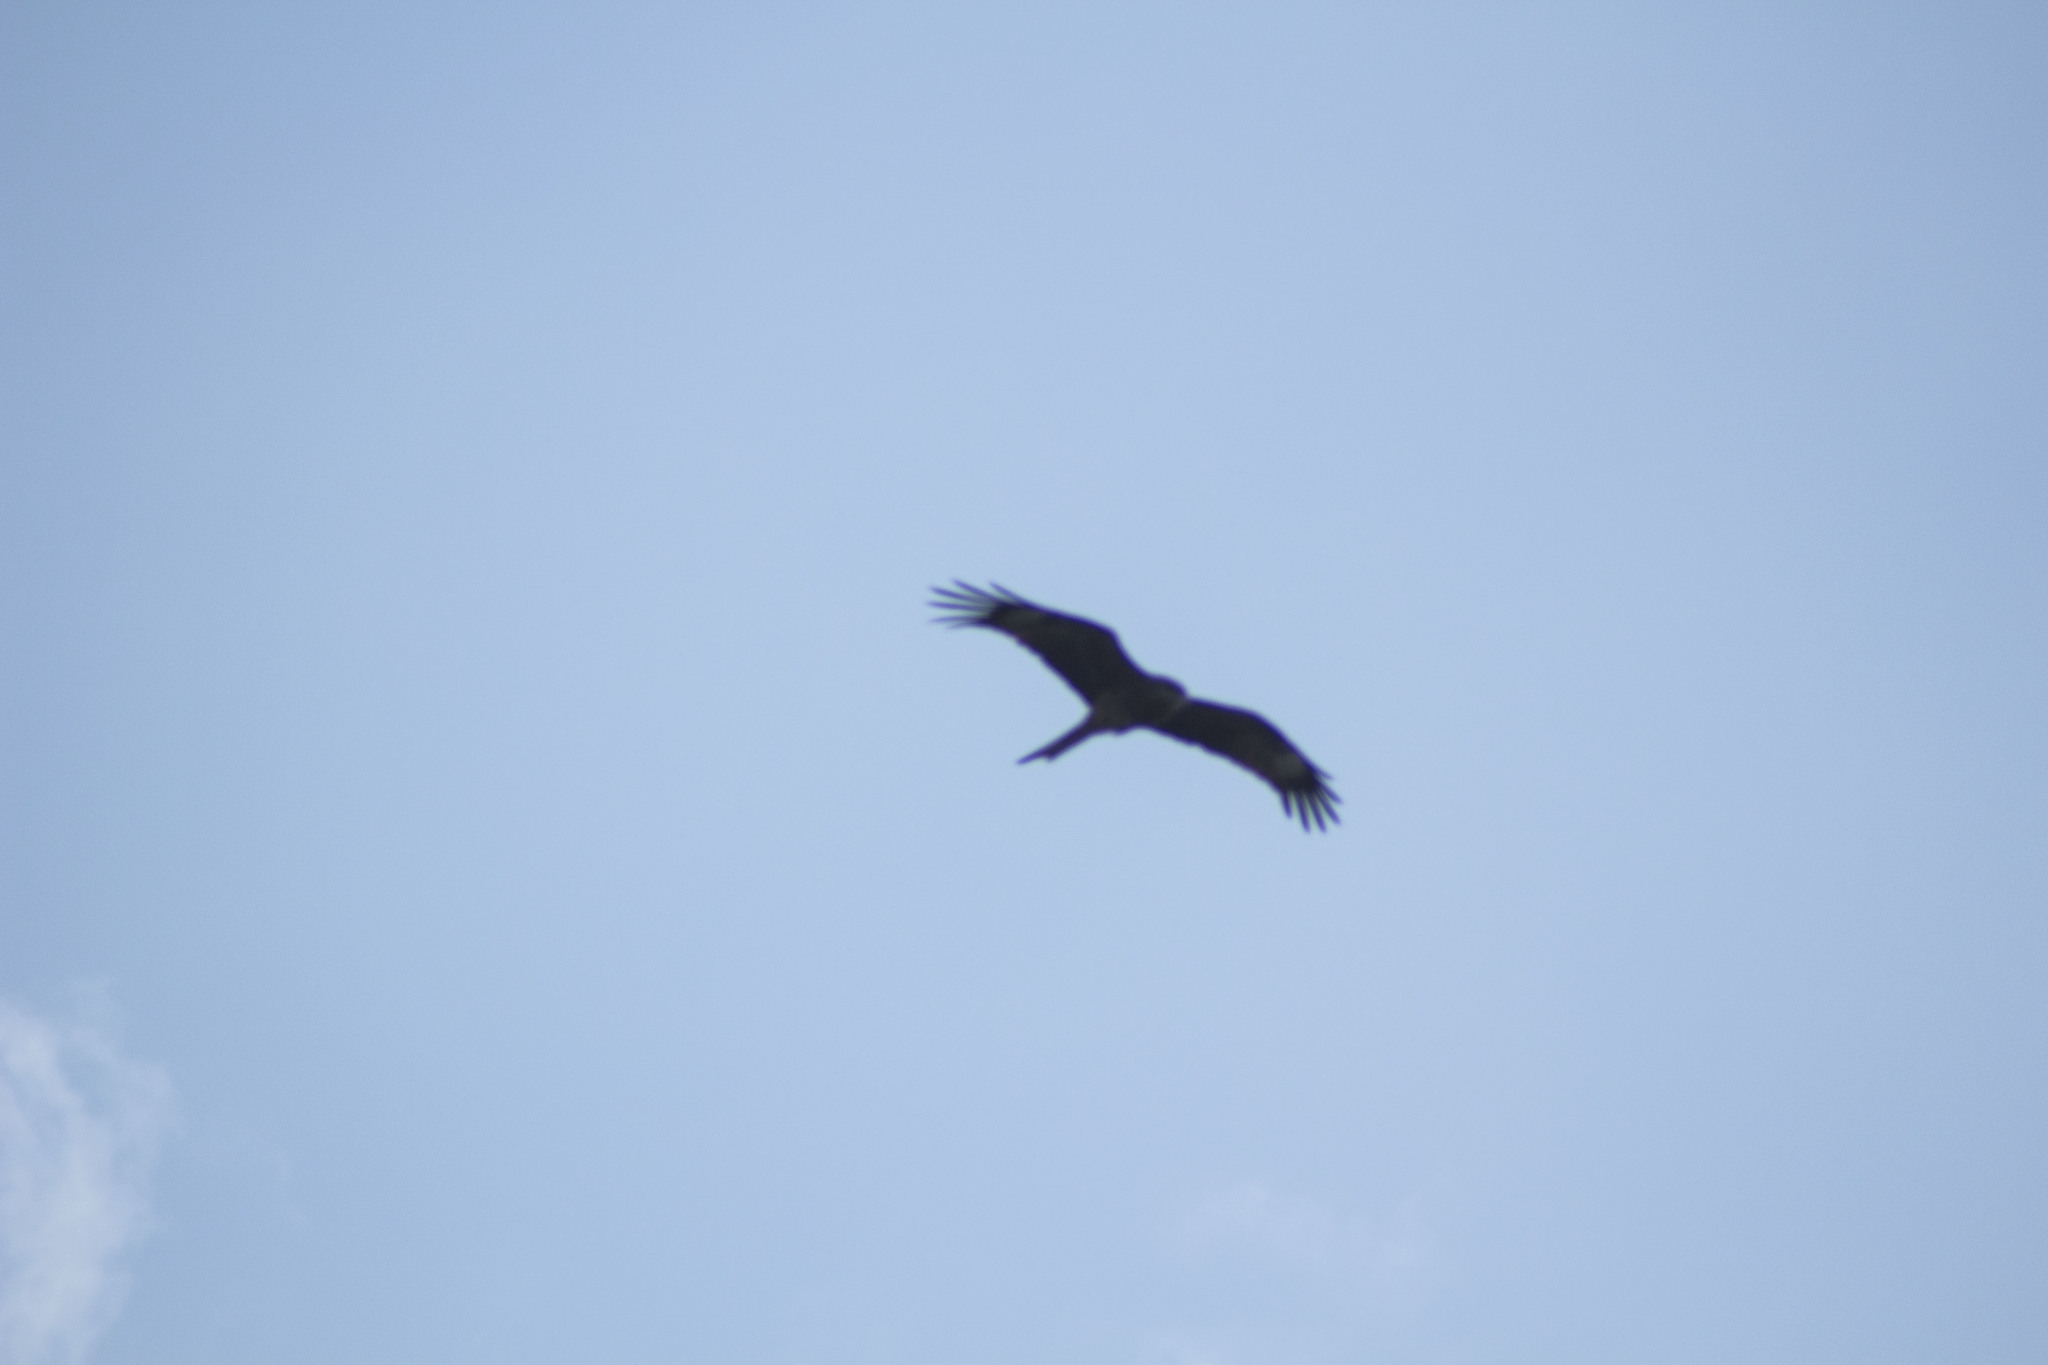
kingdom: Animalia
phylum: Chordata
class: Aves
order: Accipitriformes
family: Accipitridae
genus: Milvus
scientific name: Milvus migrans
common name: Black kite
